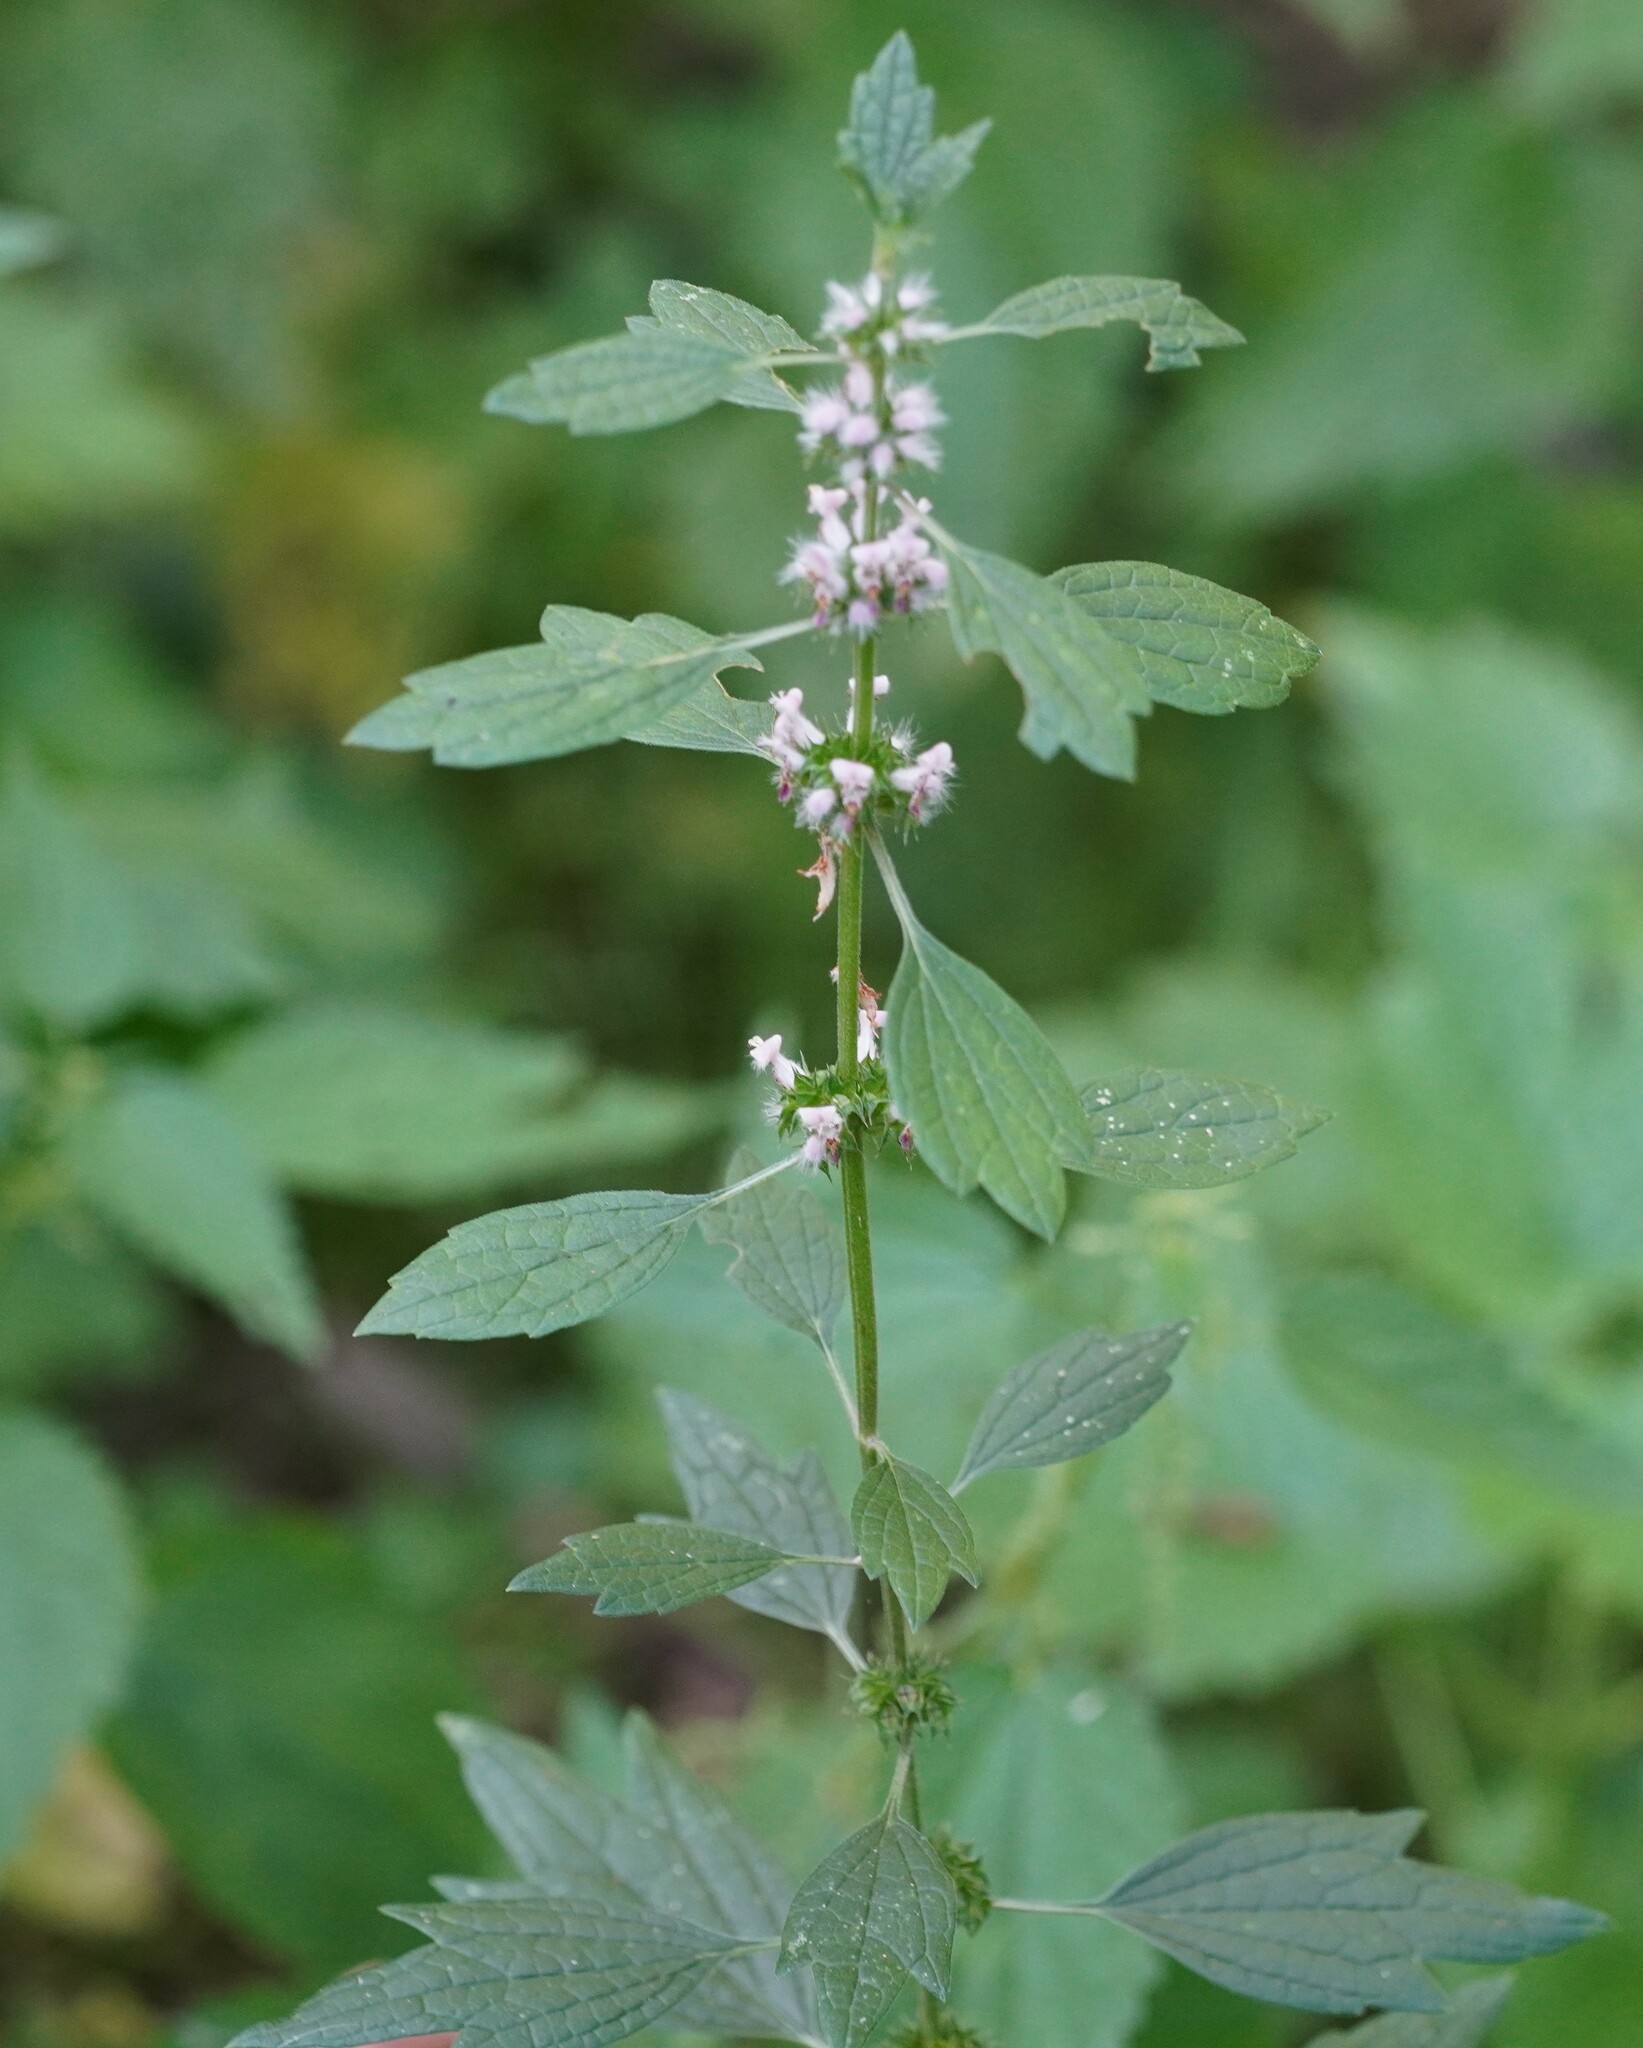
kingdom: Plantae
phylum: Tracheophyta
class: Magnoliopsida
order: Lamiales
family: Lamiaceae
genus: Leonurus
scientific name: Leonurus cardiaca
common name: Motherwort
